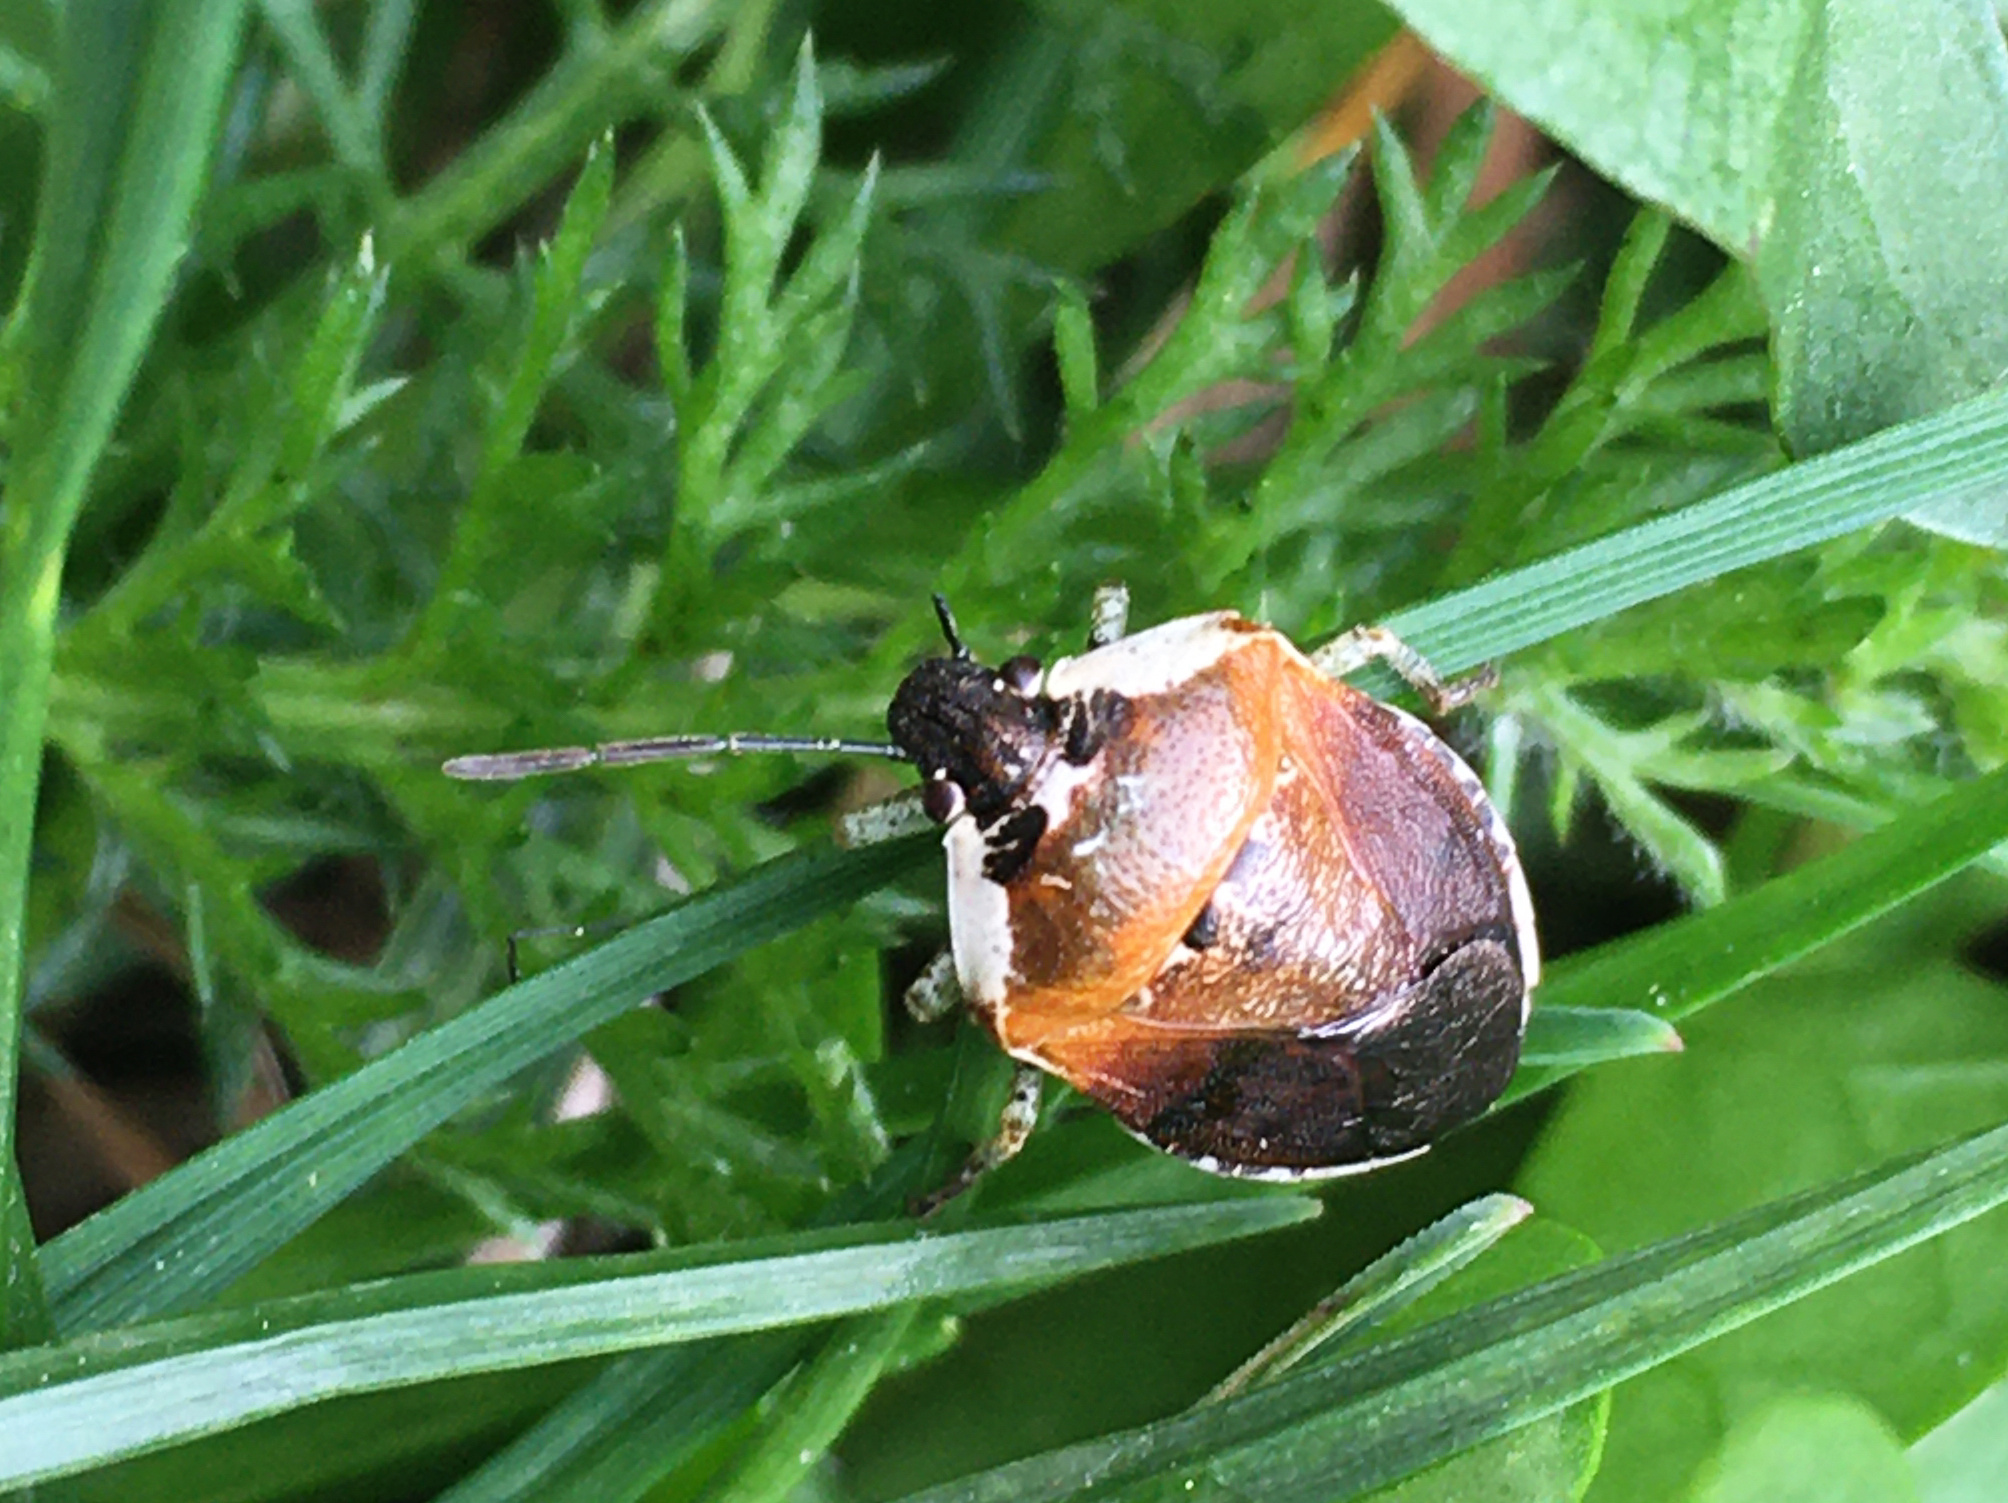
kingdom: Animalia
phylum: Arthropoda
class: Insecta
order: Hemiptera
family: Pentatomidae
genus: Monteithiella
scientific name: Monteithiella
